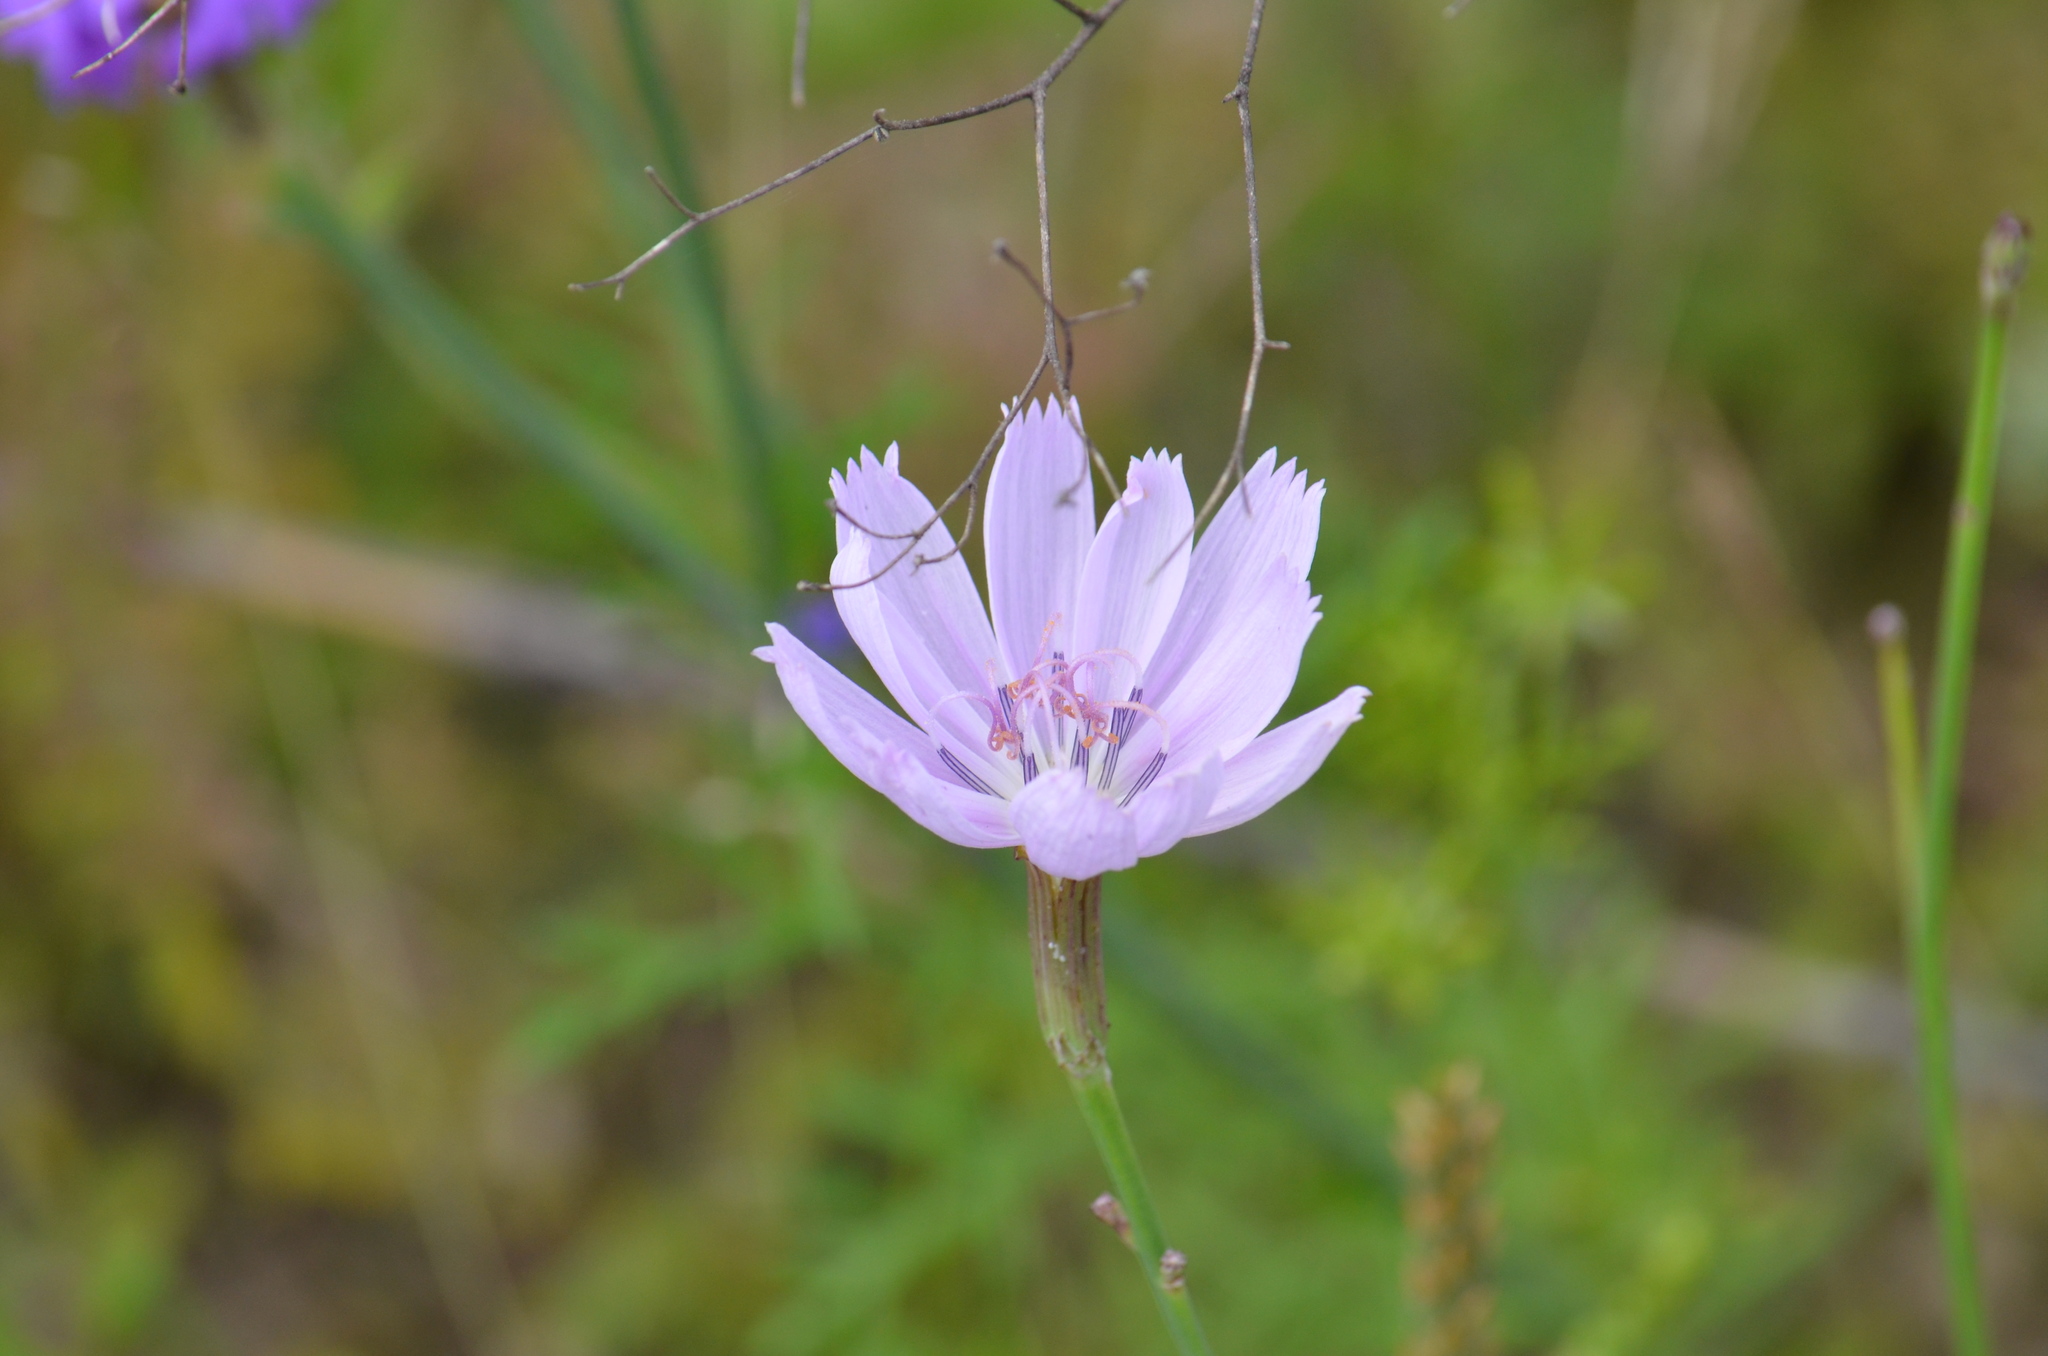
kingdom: Plantae
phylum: Tracheophyta
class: Magnoliopsida
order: Asterales
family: Asteraceae
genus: Lygodesmia
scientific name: Lygodesmia texana
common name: Texas skeleton-plant
